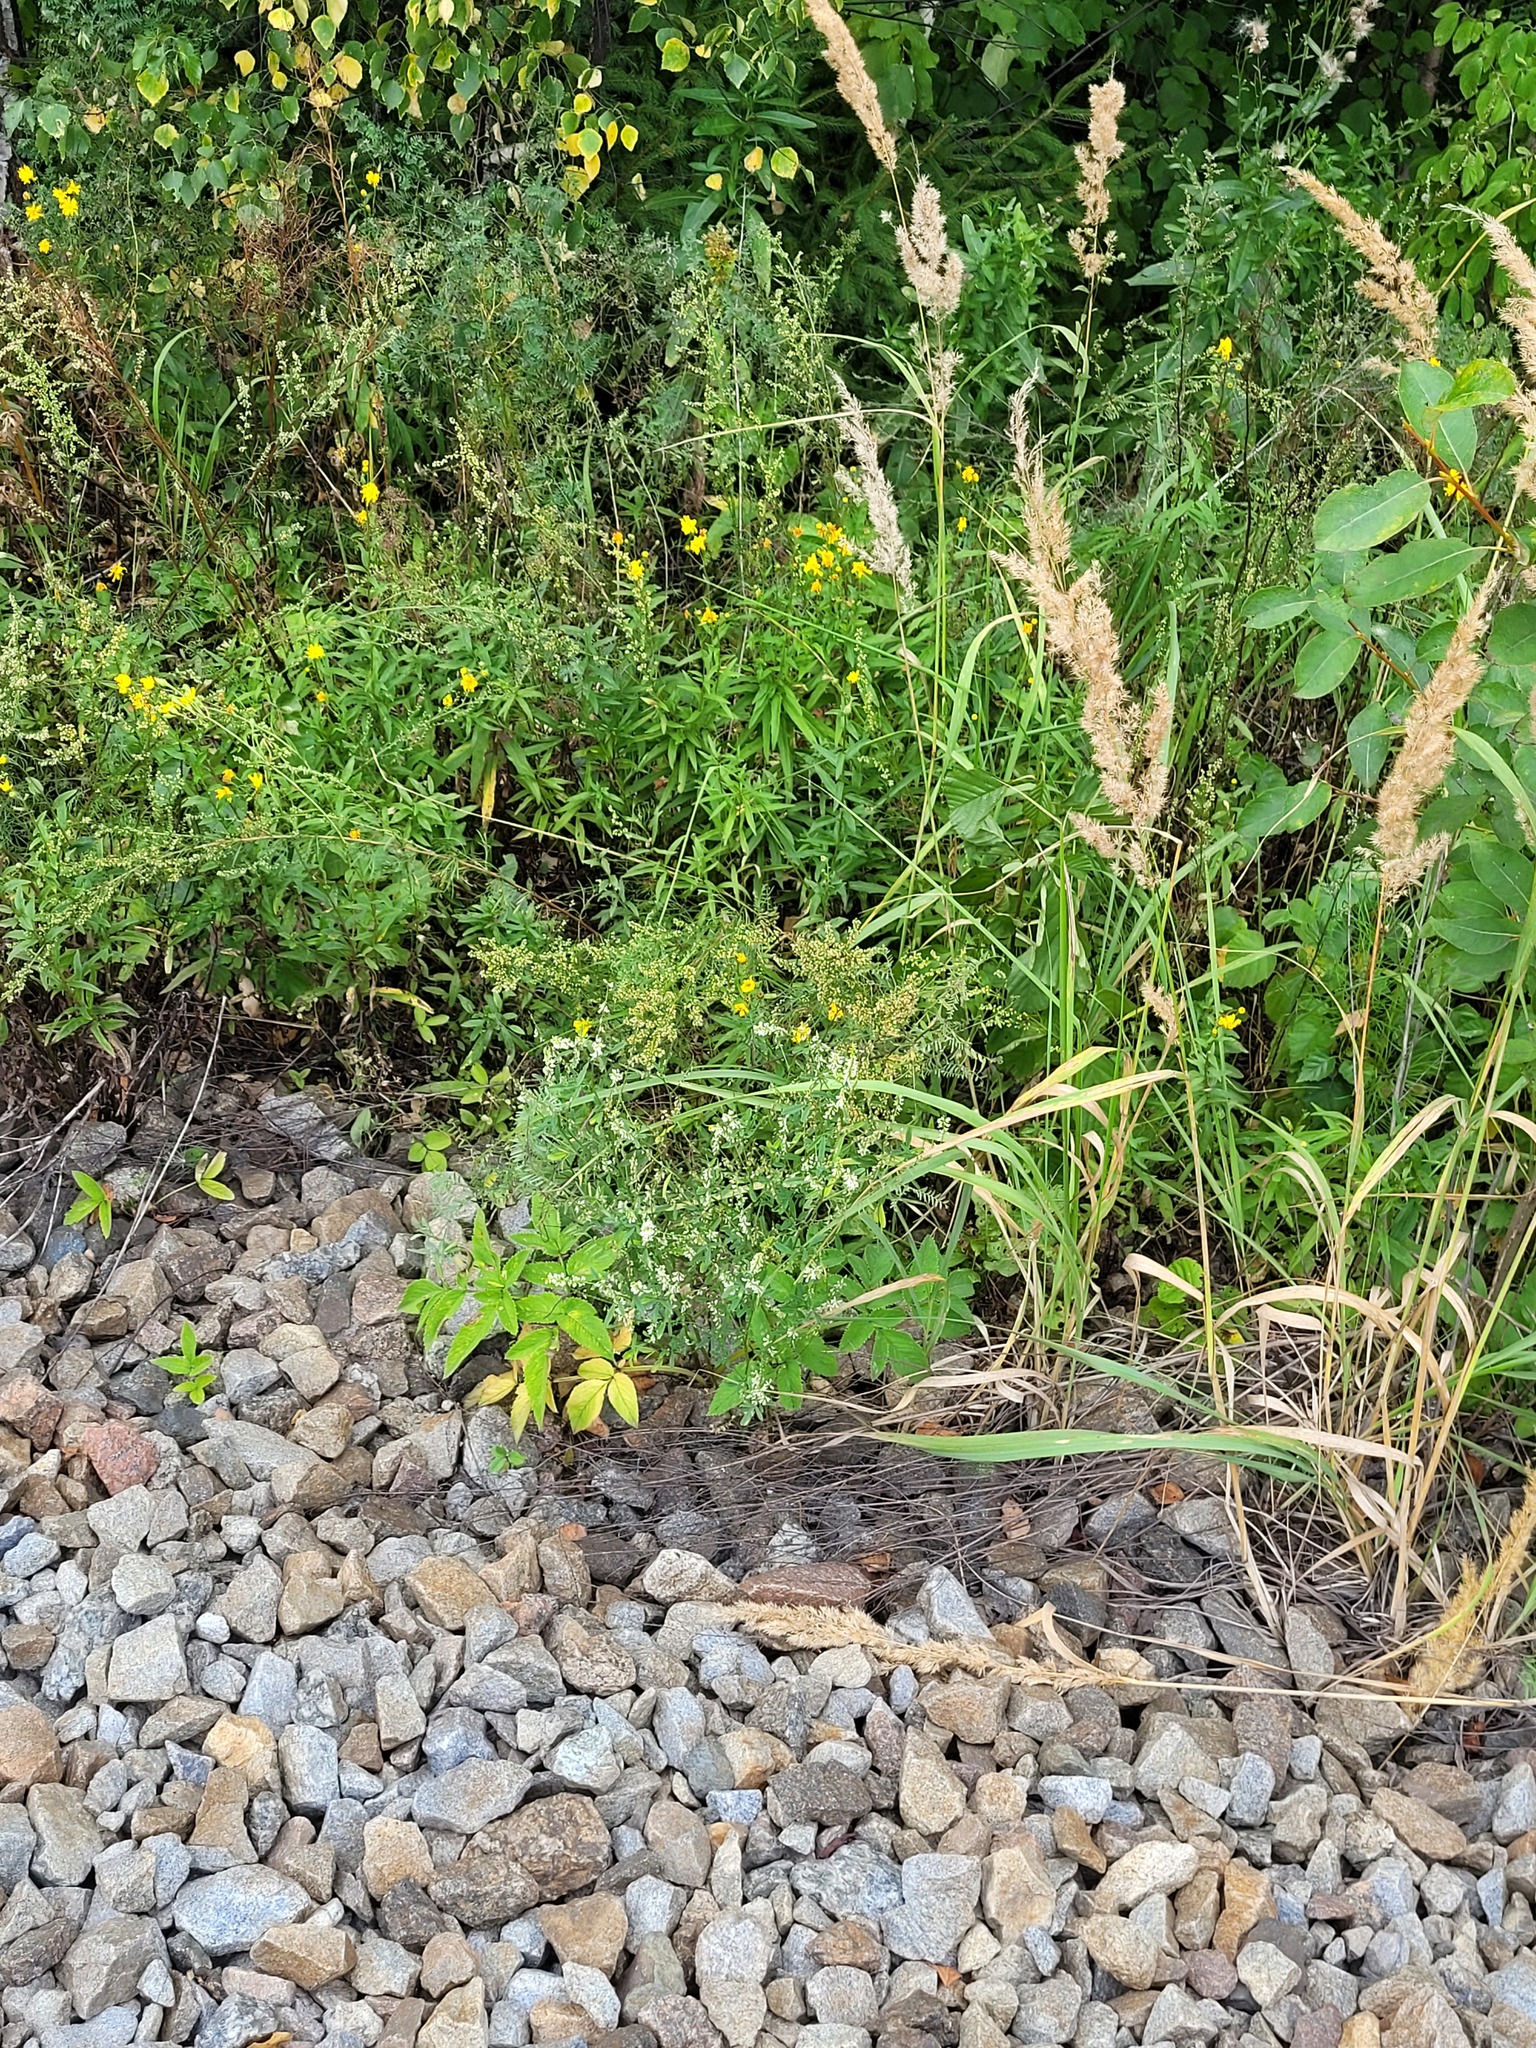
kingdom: Plantae
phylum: Tracheophyta
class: Magnoliopsida
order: Fabales
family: Fabaceae
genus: Melilotus
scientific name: Melilotus albus
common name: White melilot
